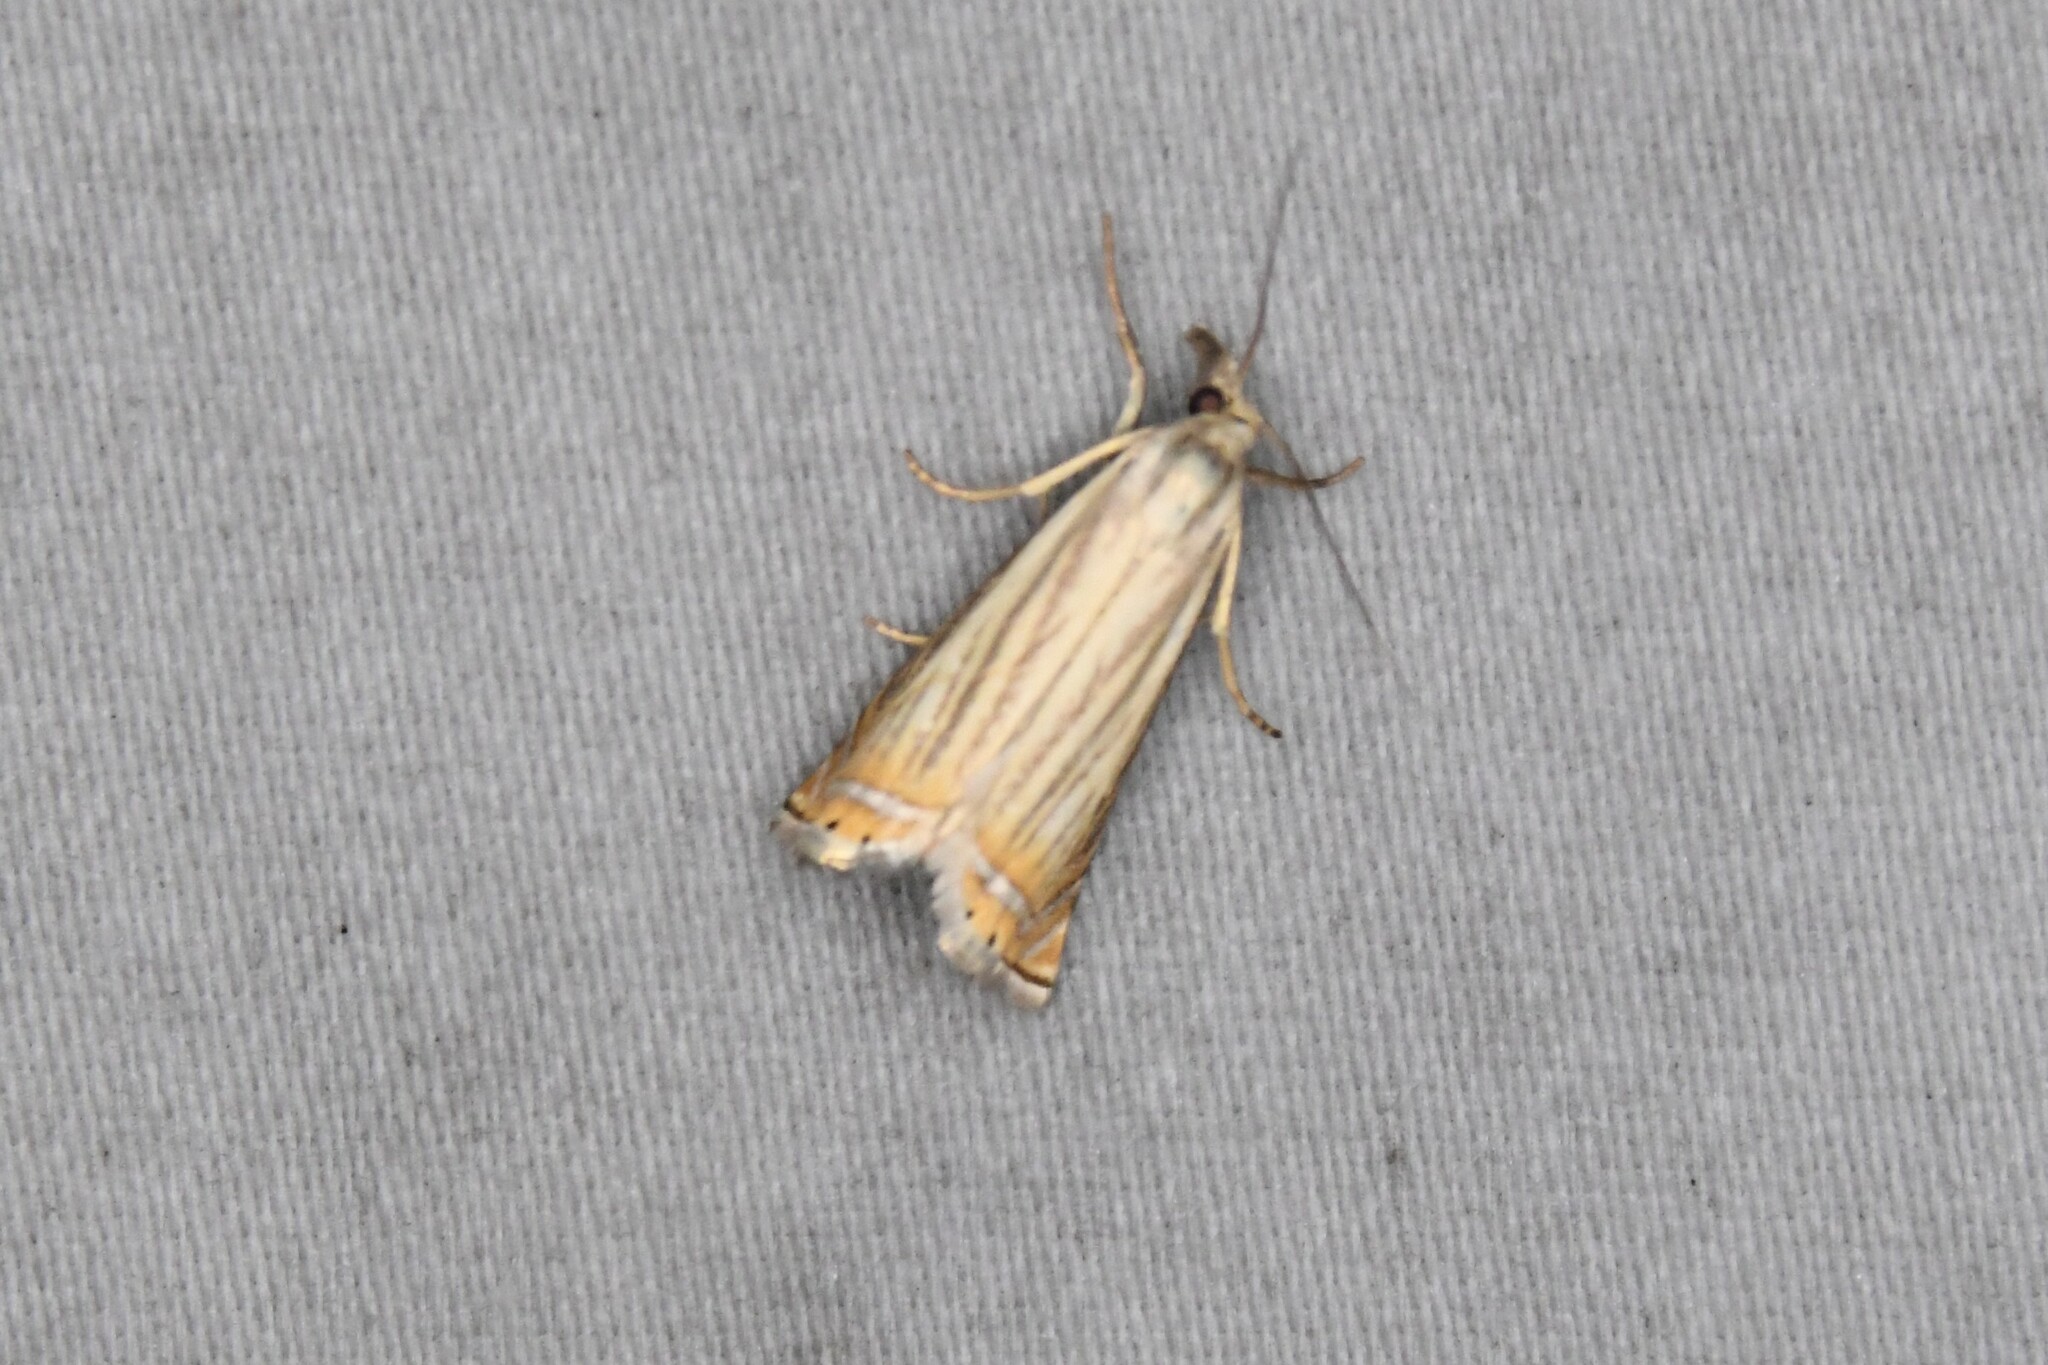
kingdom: Animalia
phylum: Arthropoda
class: Insecta
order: Lepidoptera
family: Crambidae
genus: Chrysoteuchia
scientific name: Chrysoteuchia topiarius
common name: Topiary grass-veneer
